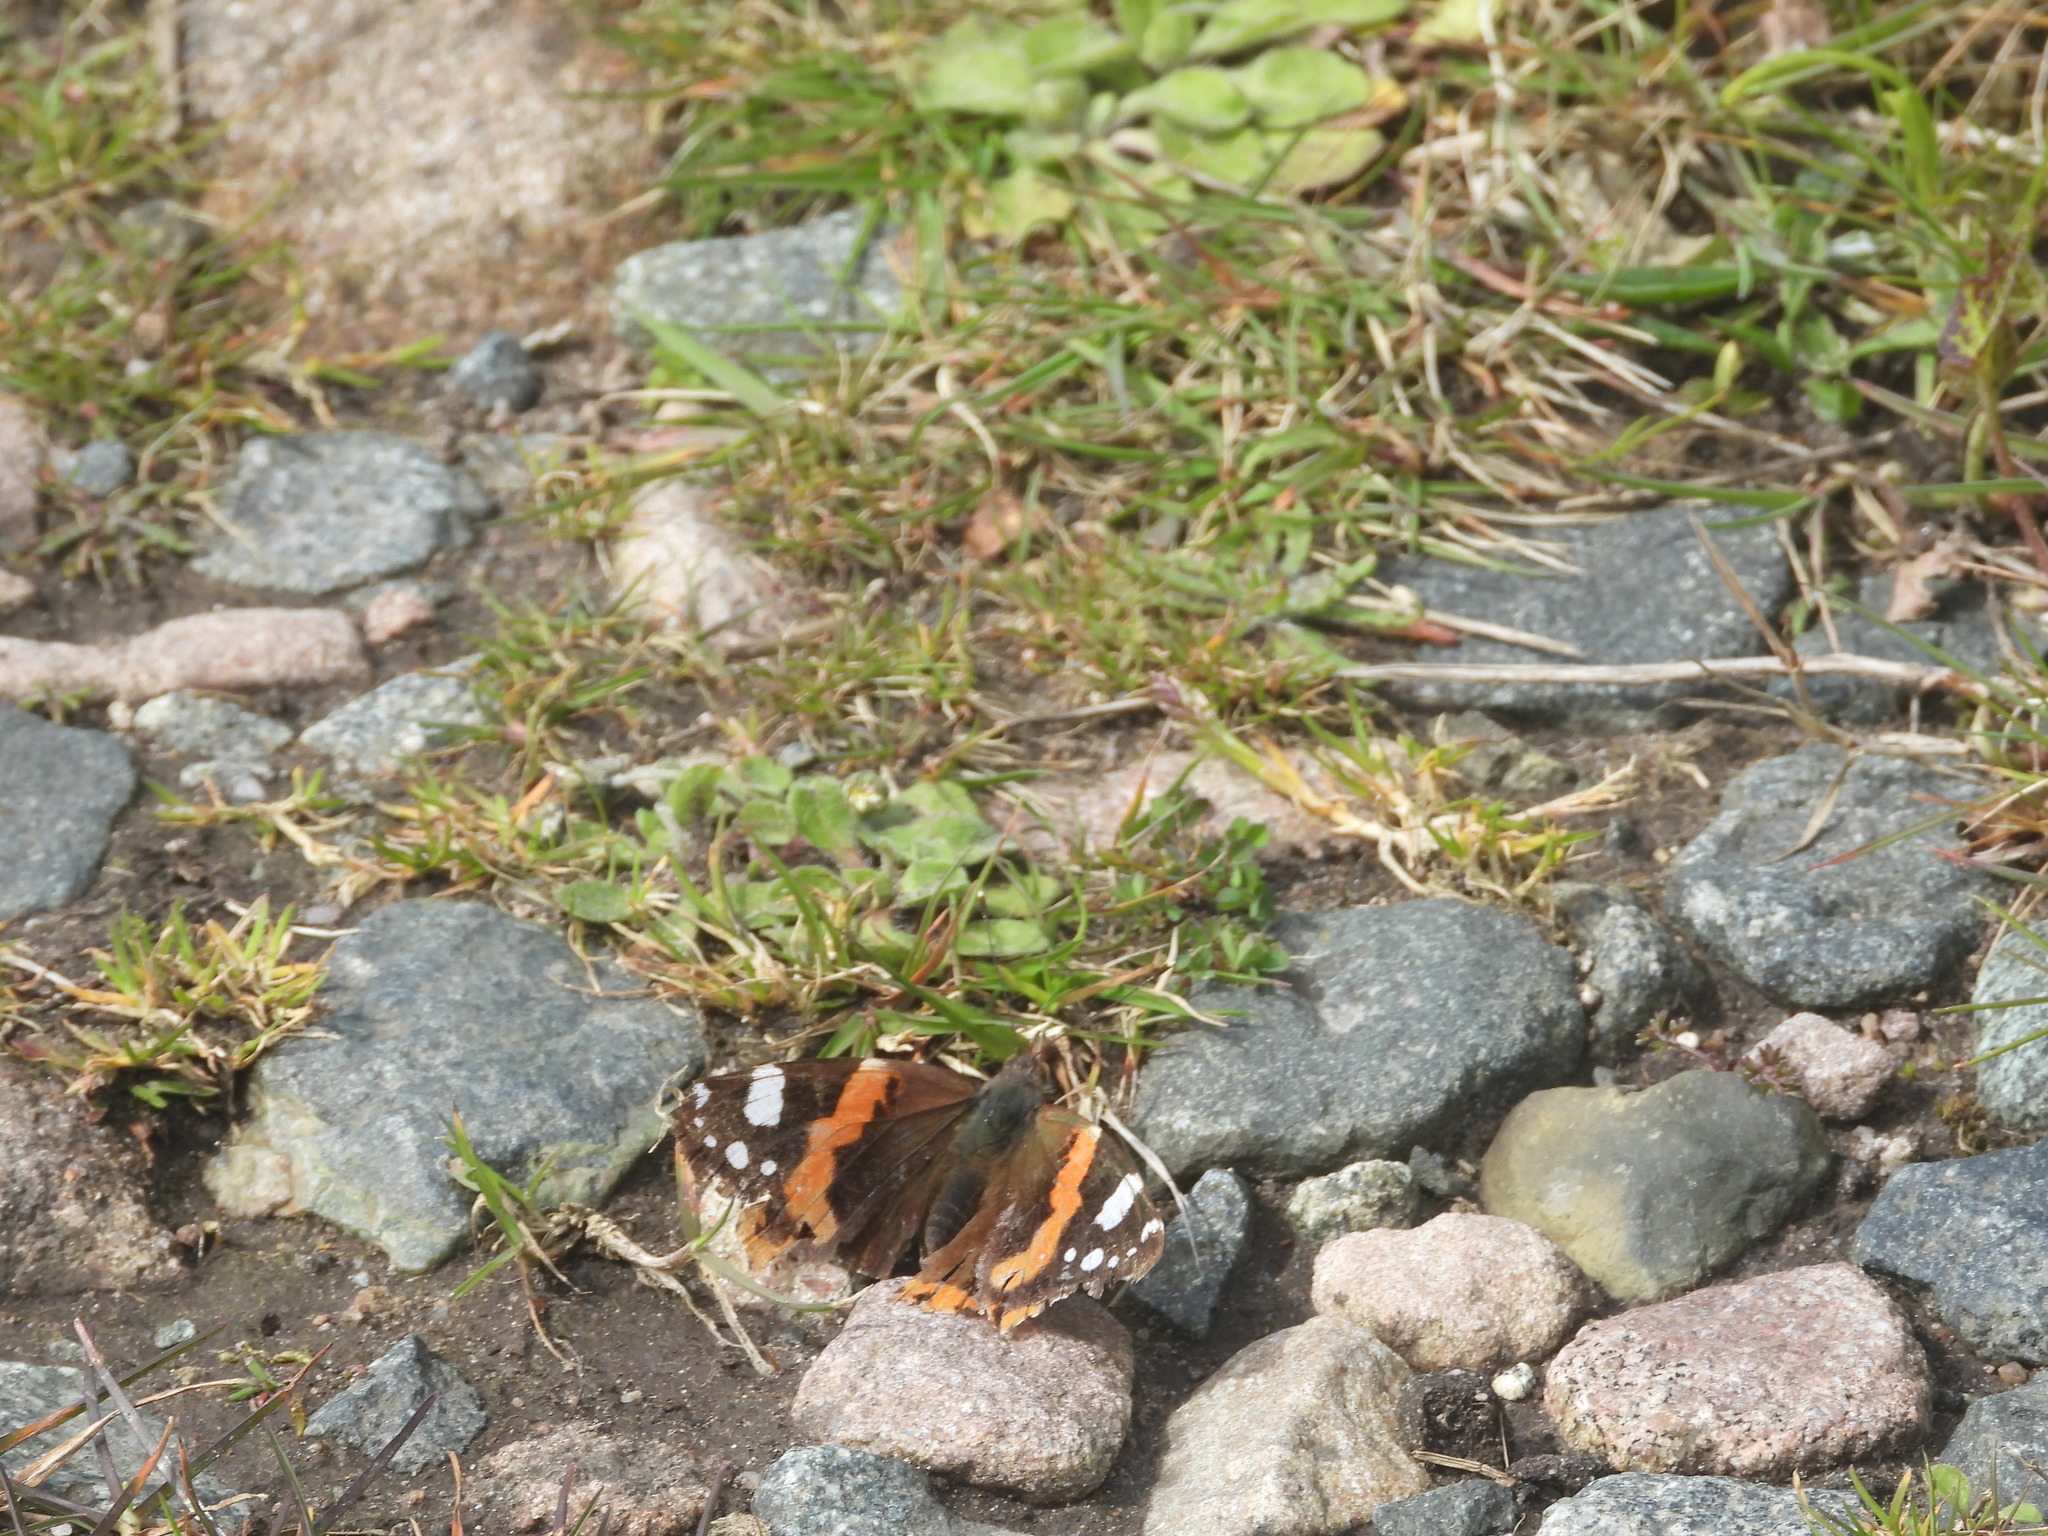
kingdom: Animalia
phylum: Arthropoda
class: Insecta
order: Lepidoptera
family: Nymphalidae
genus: Vanessa
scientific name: Vanessa atalanta
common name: Red admiral
